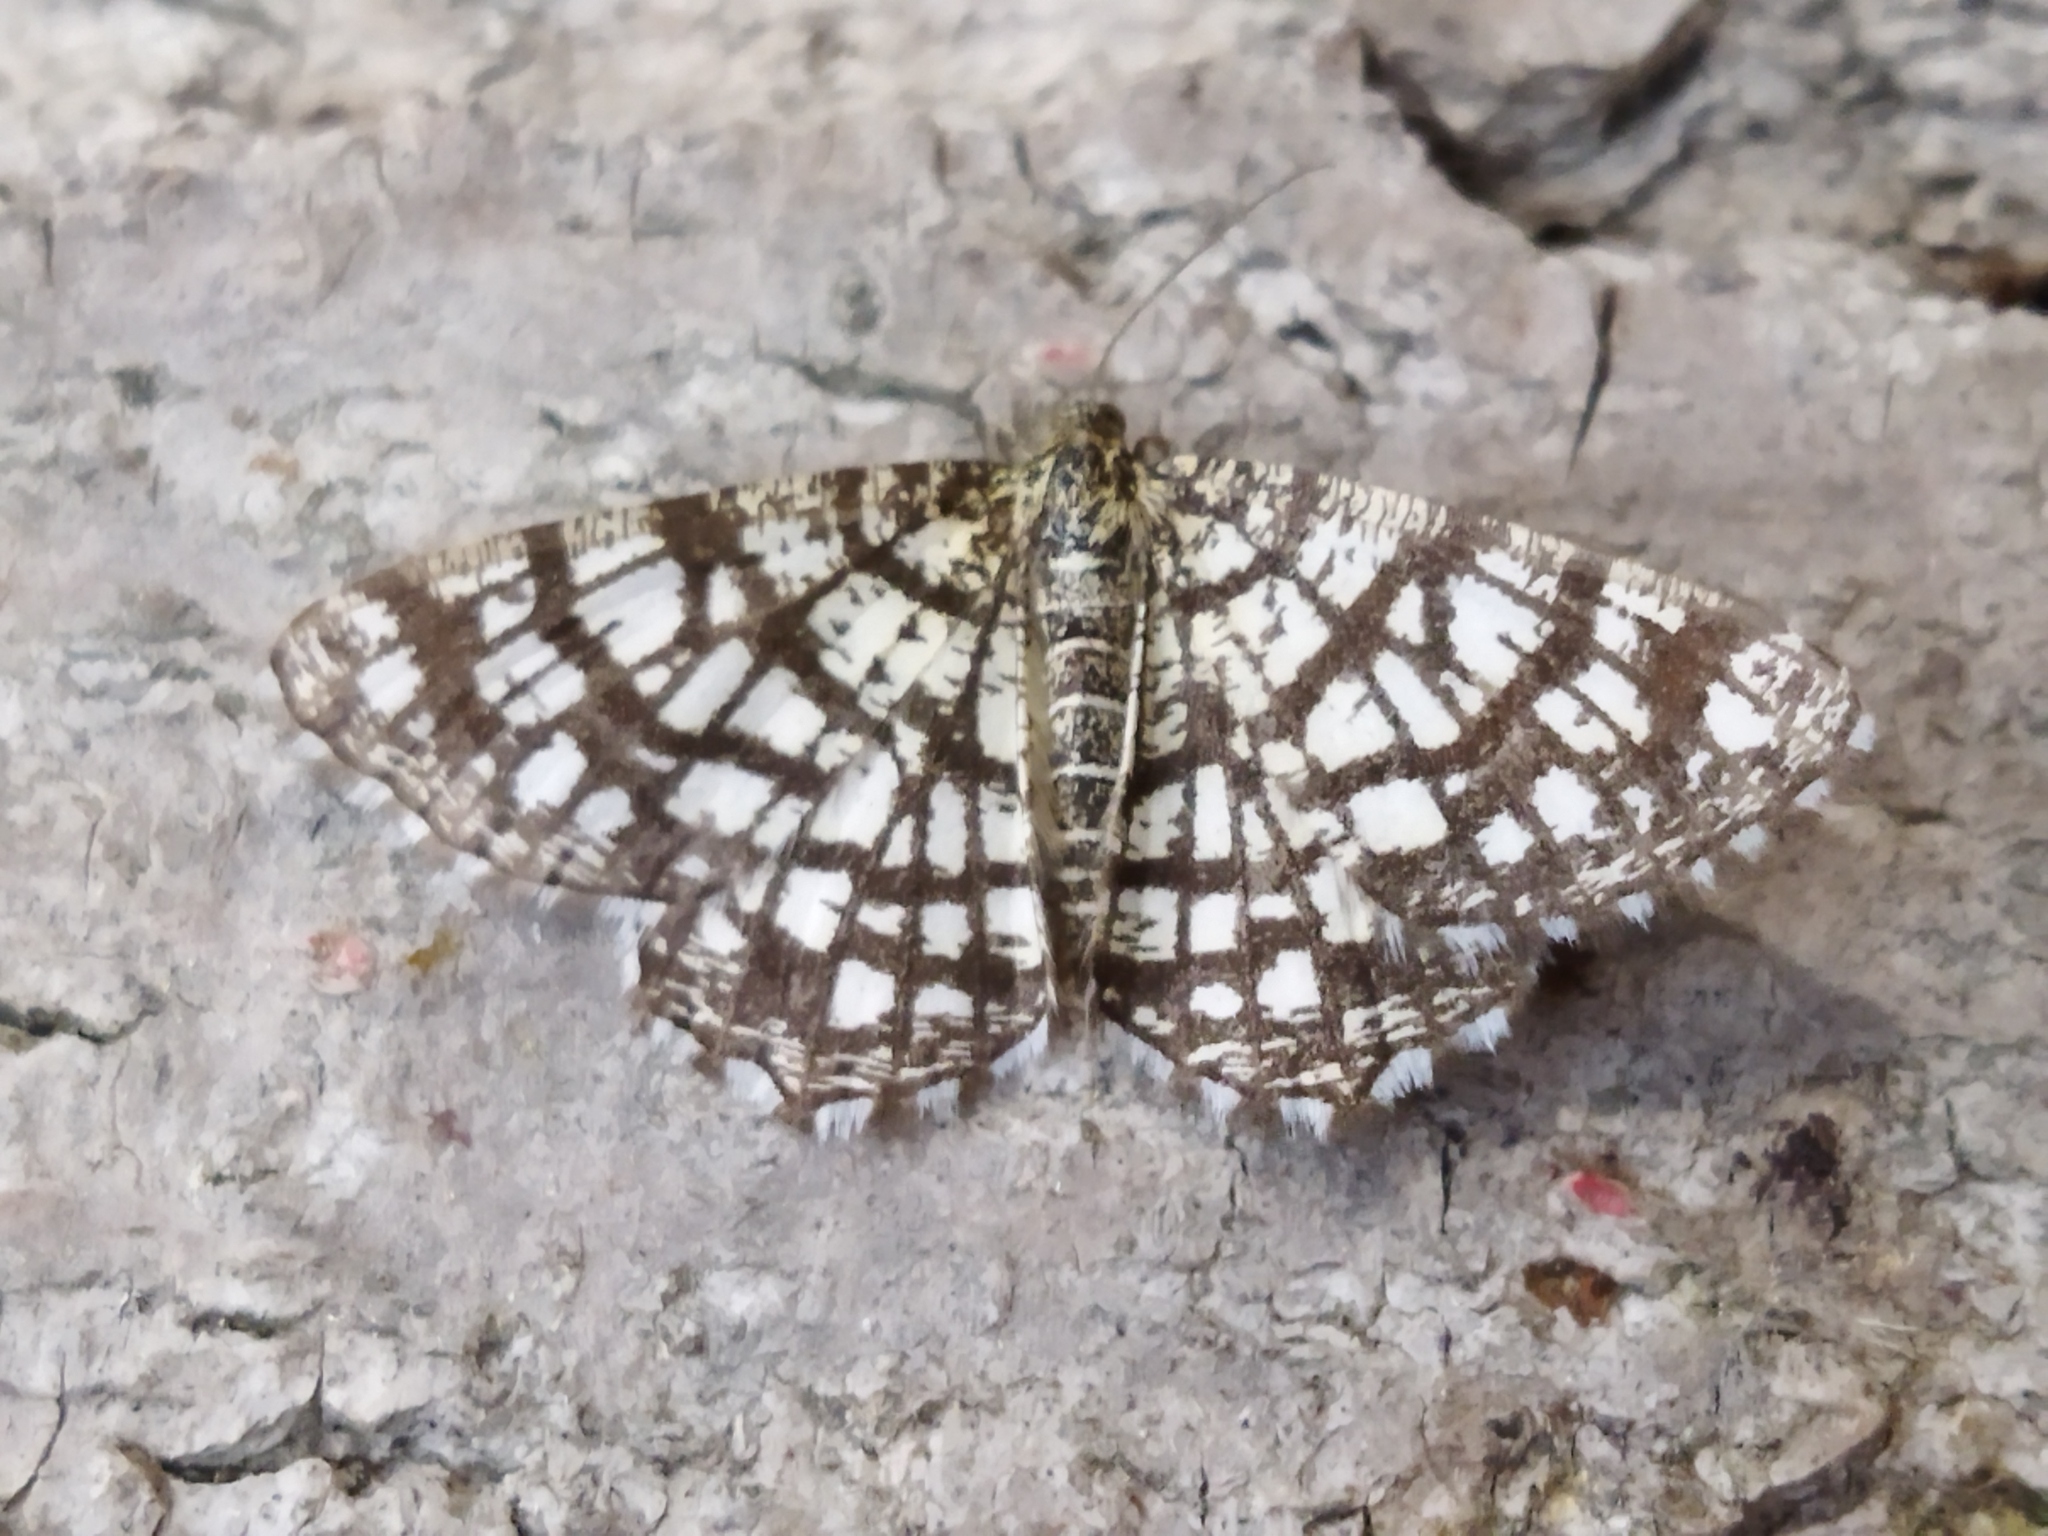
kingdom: Animalia
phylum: Arthropoda
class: Insecta
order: Lepidoptera
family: Geometridae
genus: Chiasmia
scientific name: Chiasmia clathrata
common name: Latticed heath
